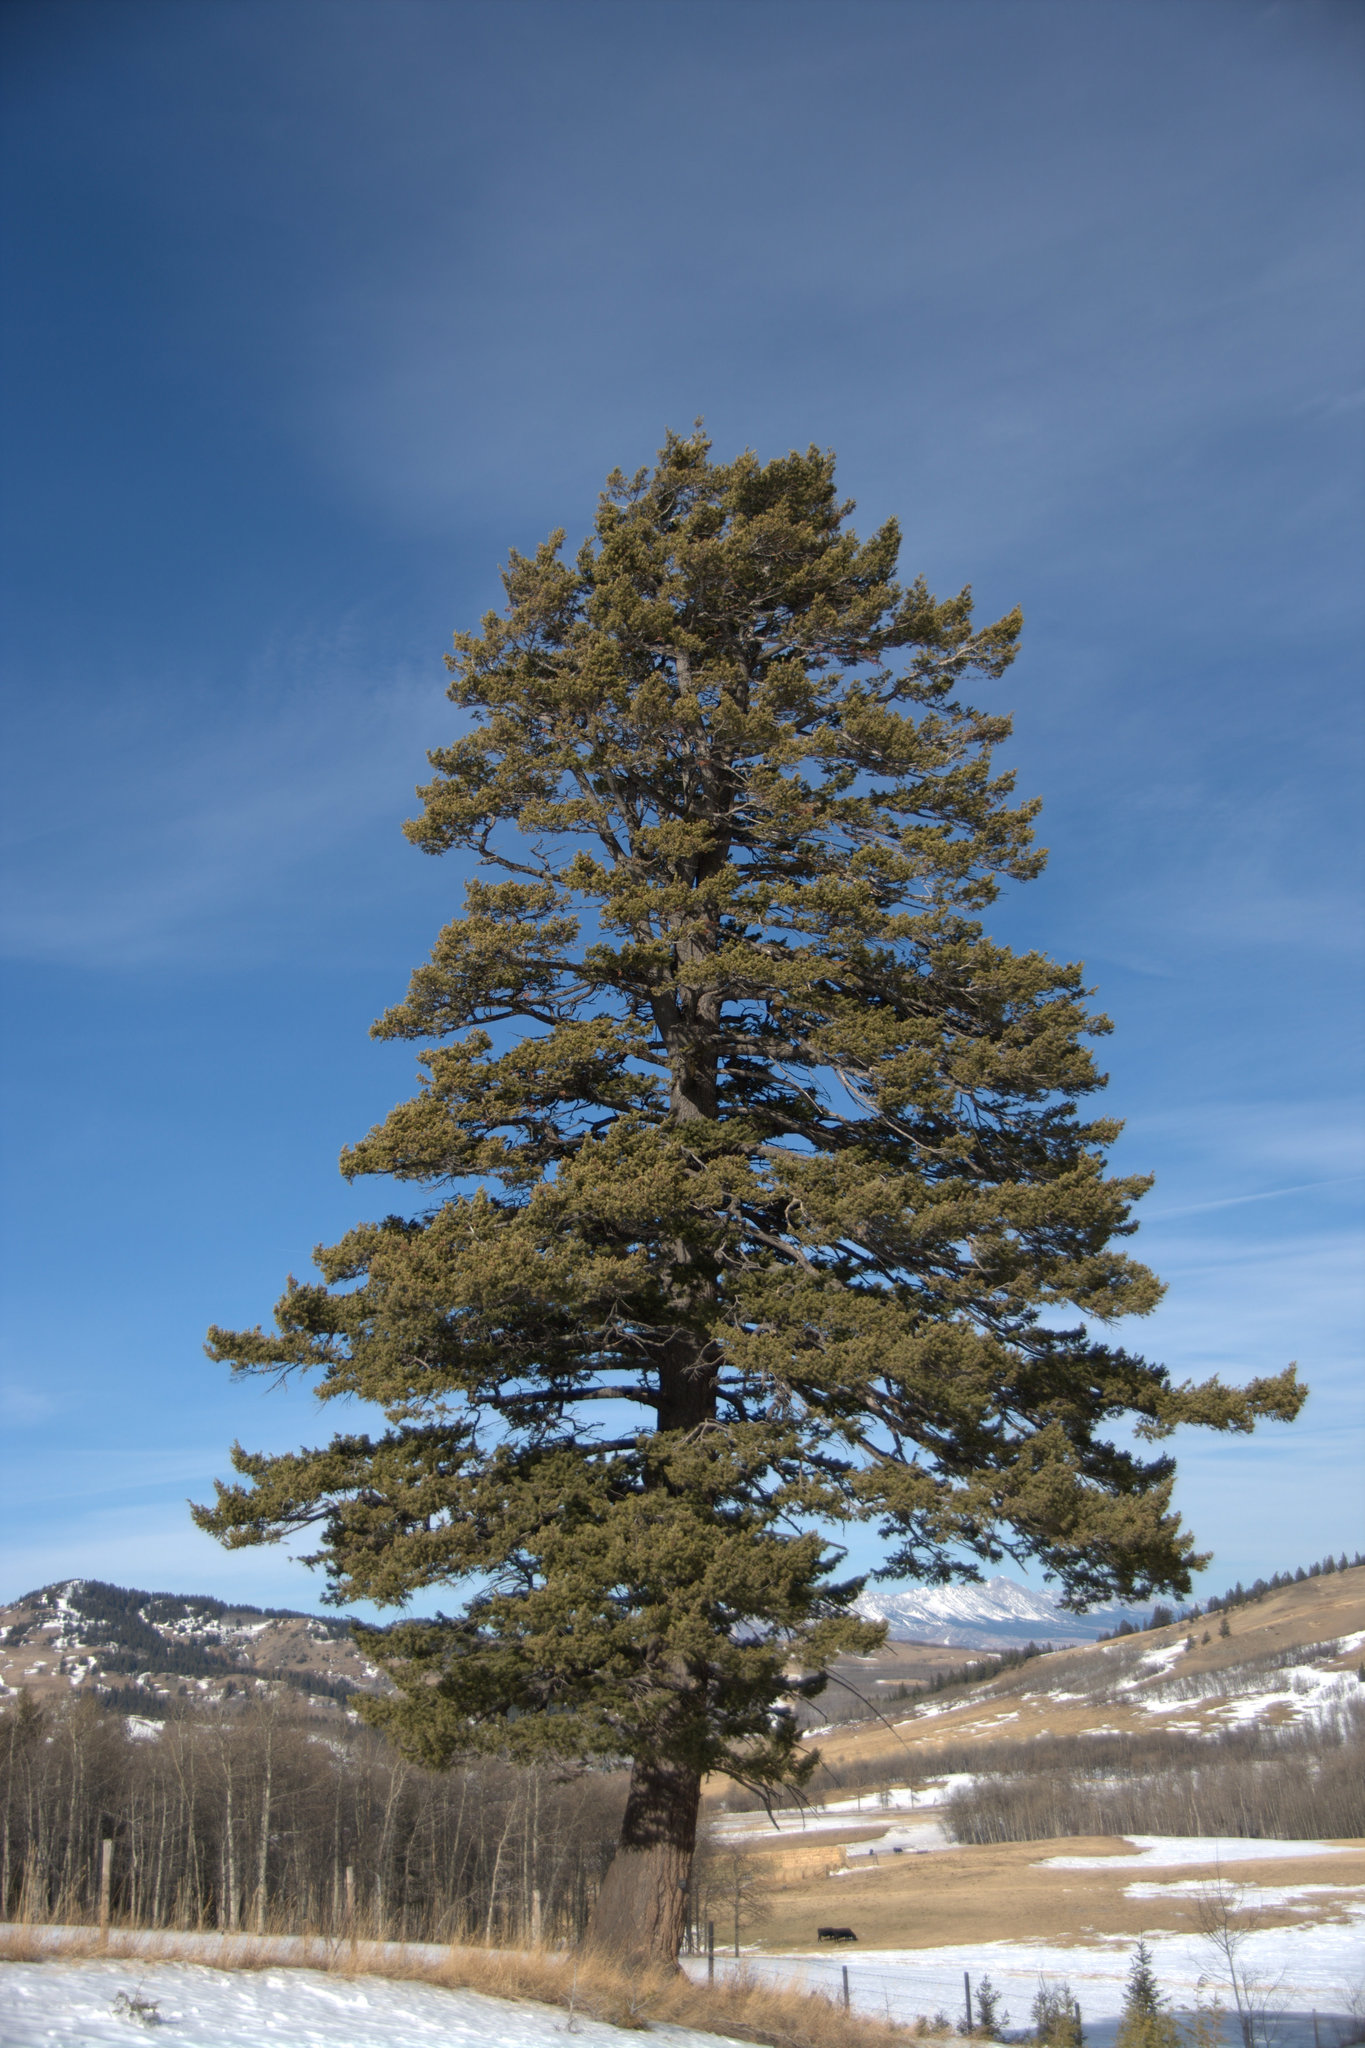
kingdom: Plantae
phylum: Tracheophyta
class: Pinopsida
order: Pinales
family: Pinaceae
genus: Pseudotsuga
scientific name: Pseudotsuga menziesii
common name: Douglas fir
